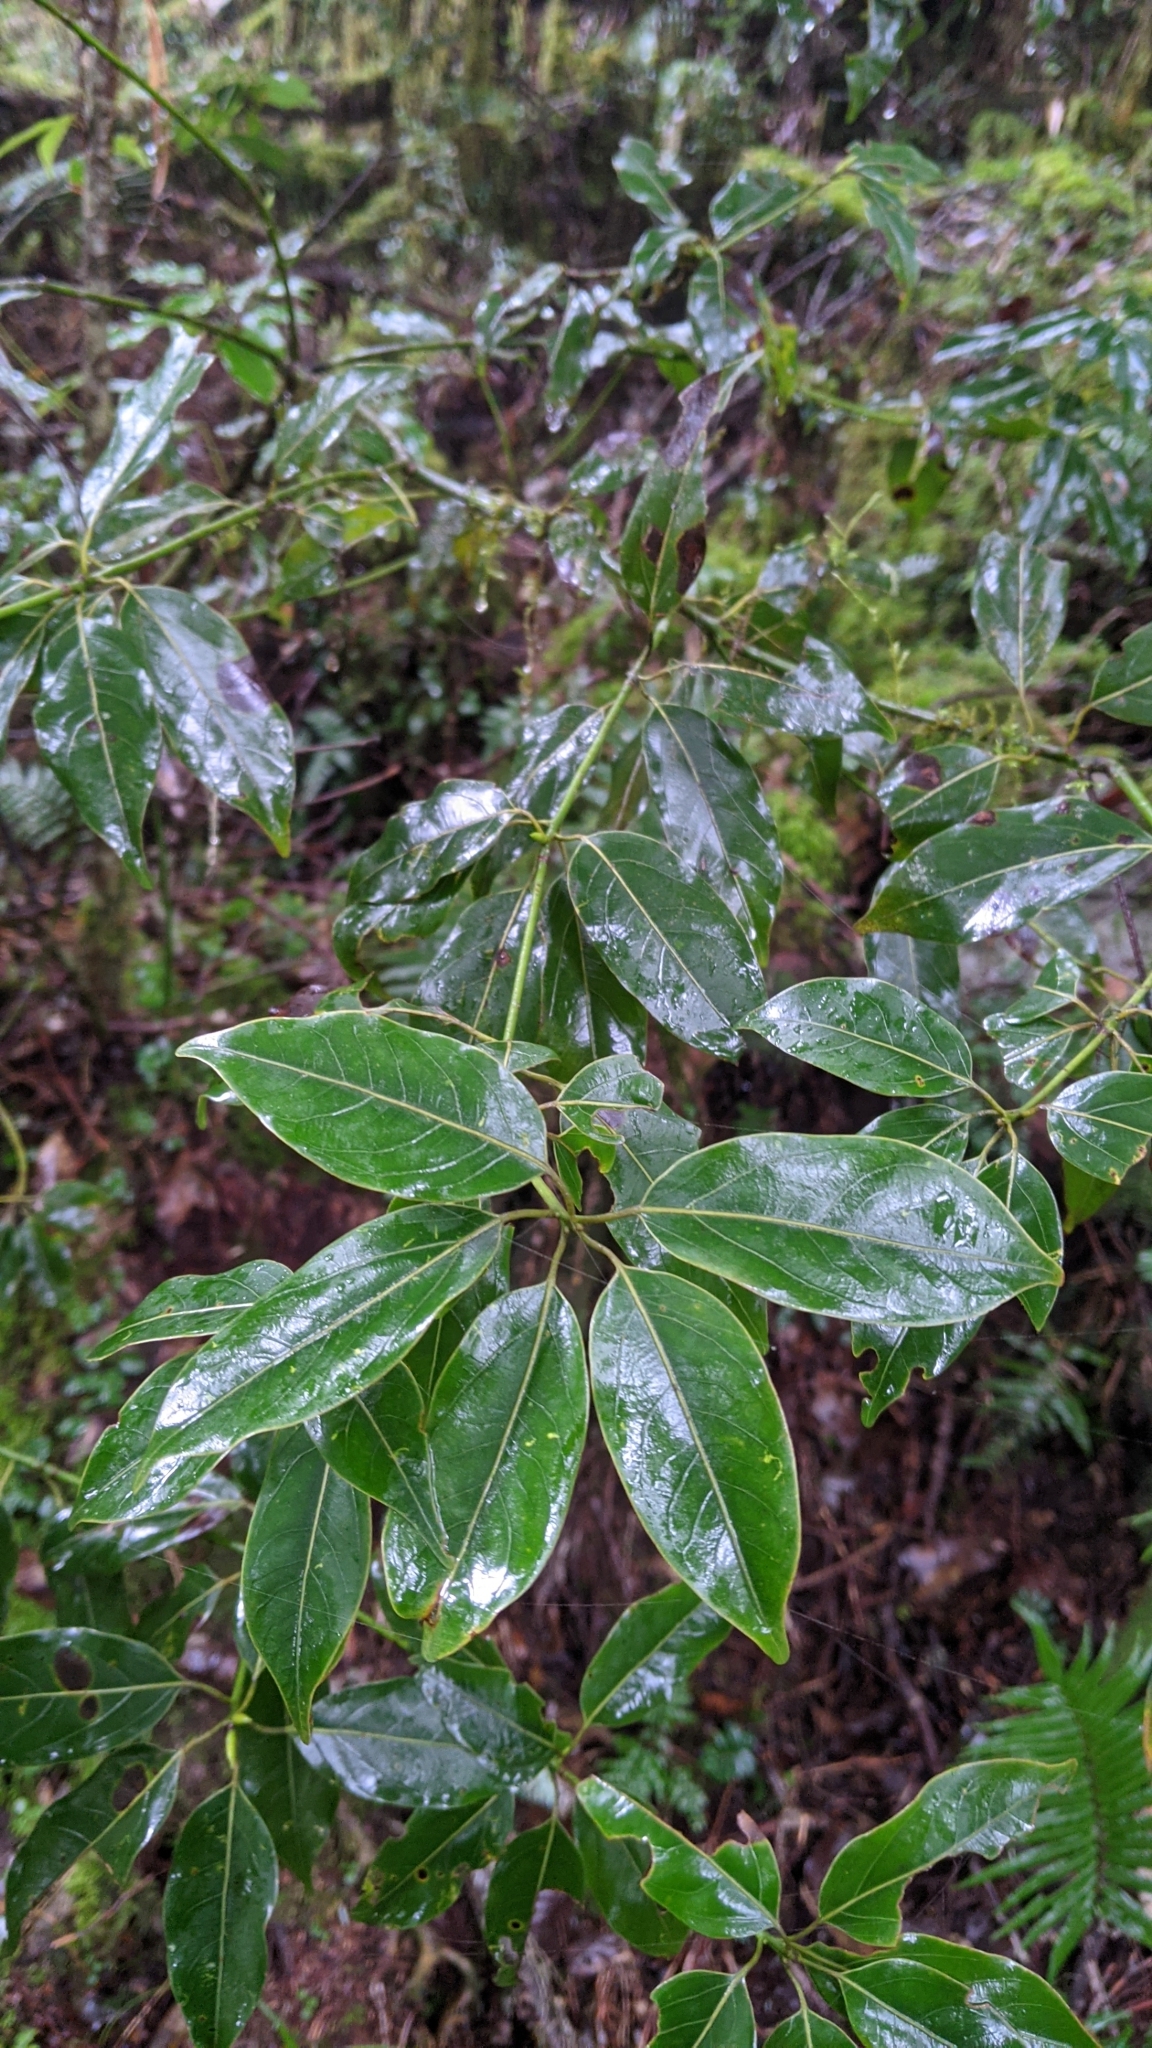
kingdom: Plantae
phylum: Tracheophyta
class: Magnoliopsida
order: Laurales
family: Lauraceae
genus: Neolitsea
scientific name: Neolitsea acuminatissima
